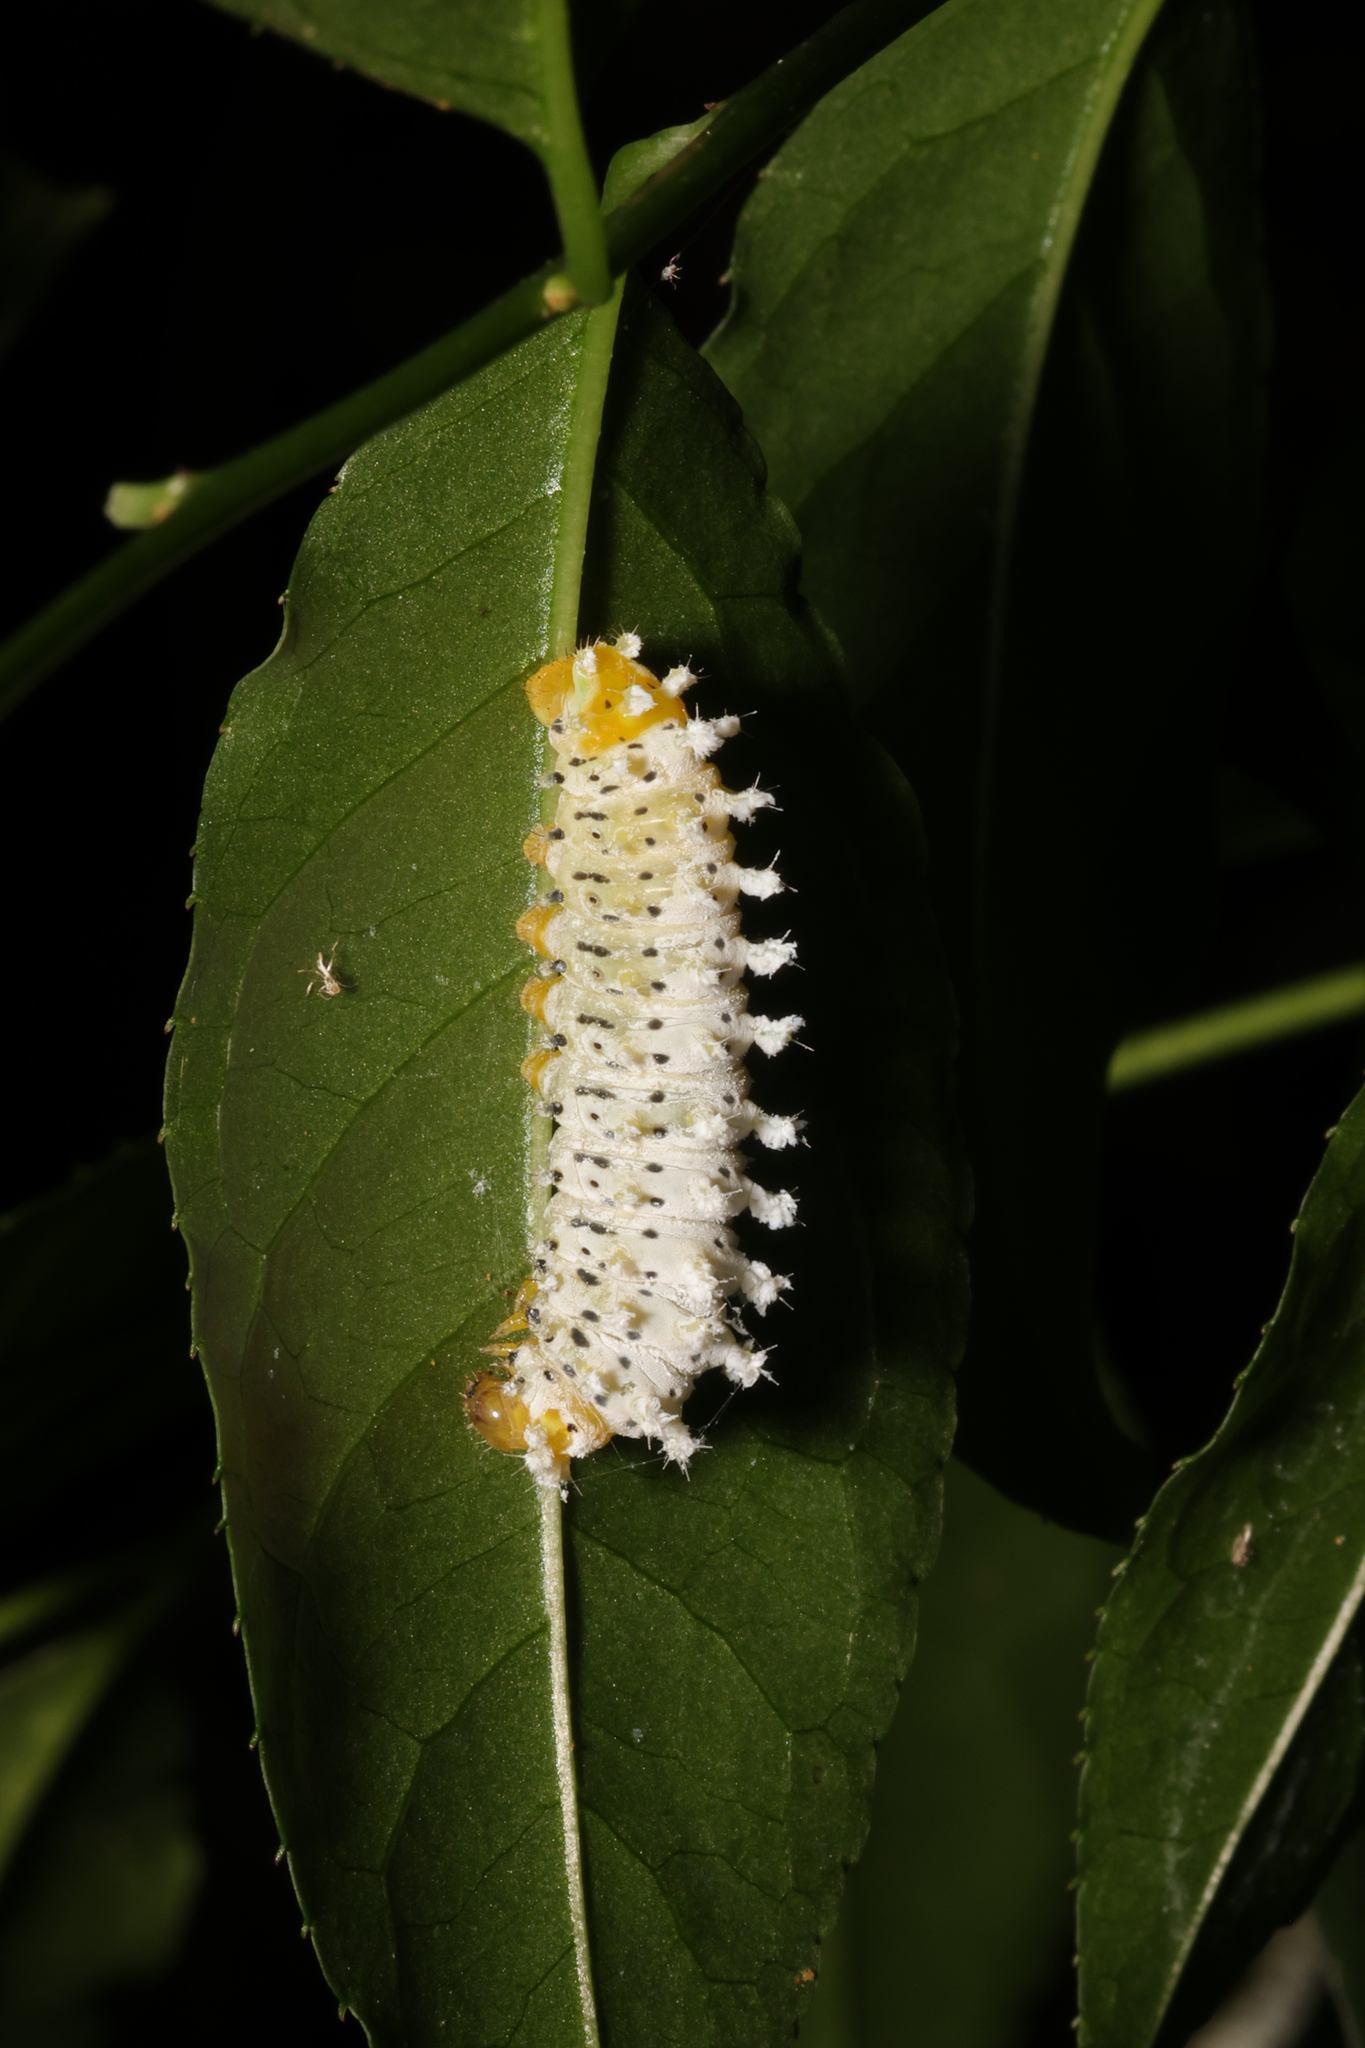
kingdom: Animalia
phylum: Arthropoda
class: Insecta
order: Lepidoptera
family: Saturniidae
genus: Samia
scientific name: Samia wangi
